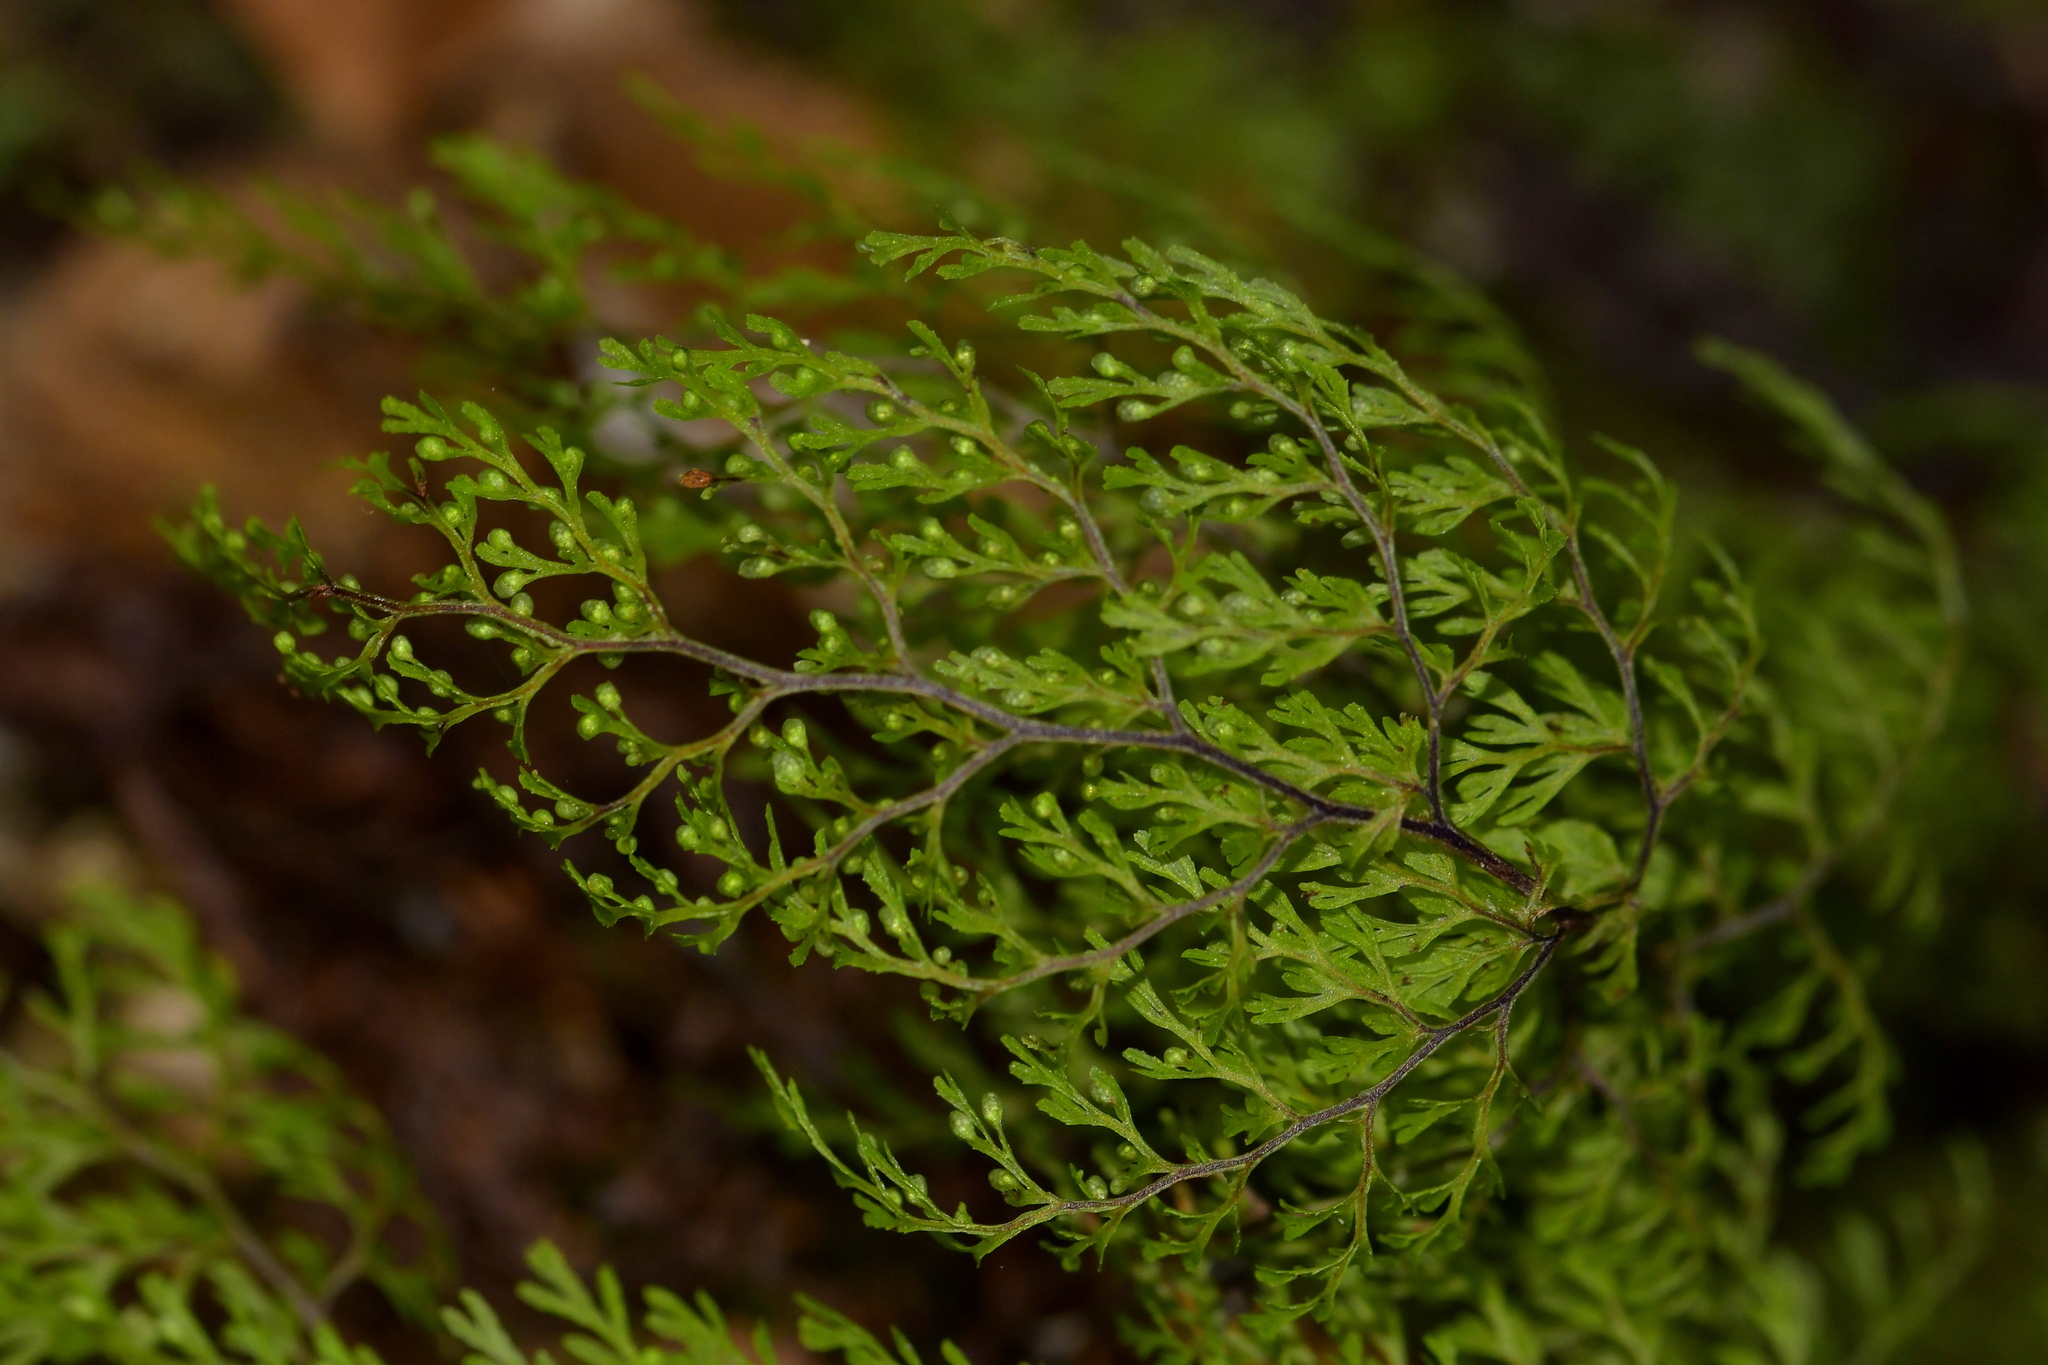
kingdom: Plantae
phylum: Tracheophyta
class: Polypodiopsida
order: Hymenophyllales
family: Hymenophyllaceae
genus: Hymenophyllum
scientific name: Hymenophyllum bivalve
